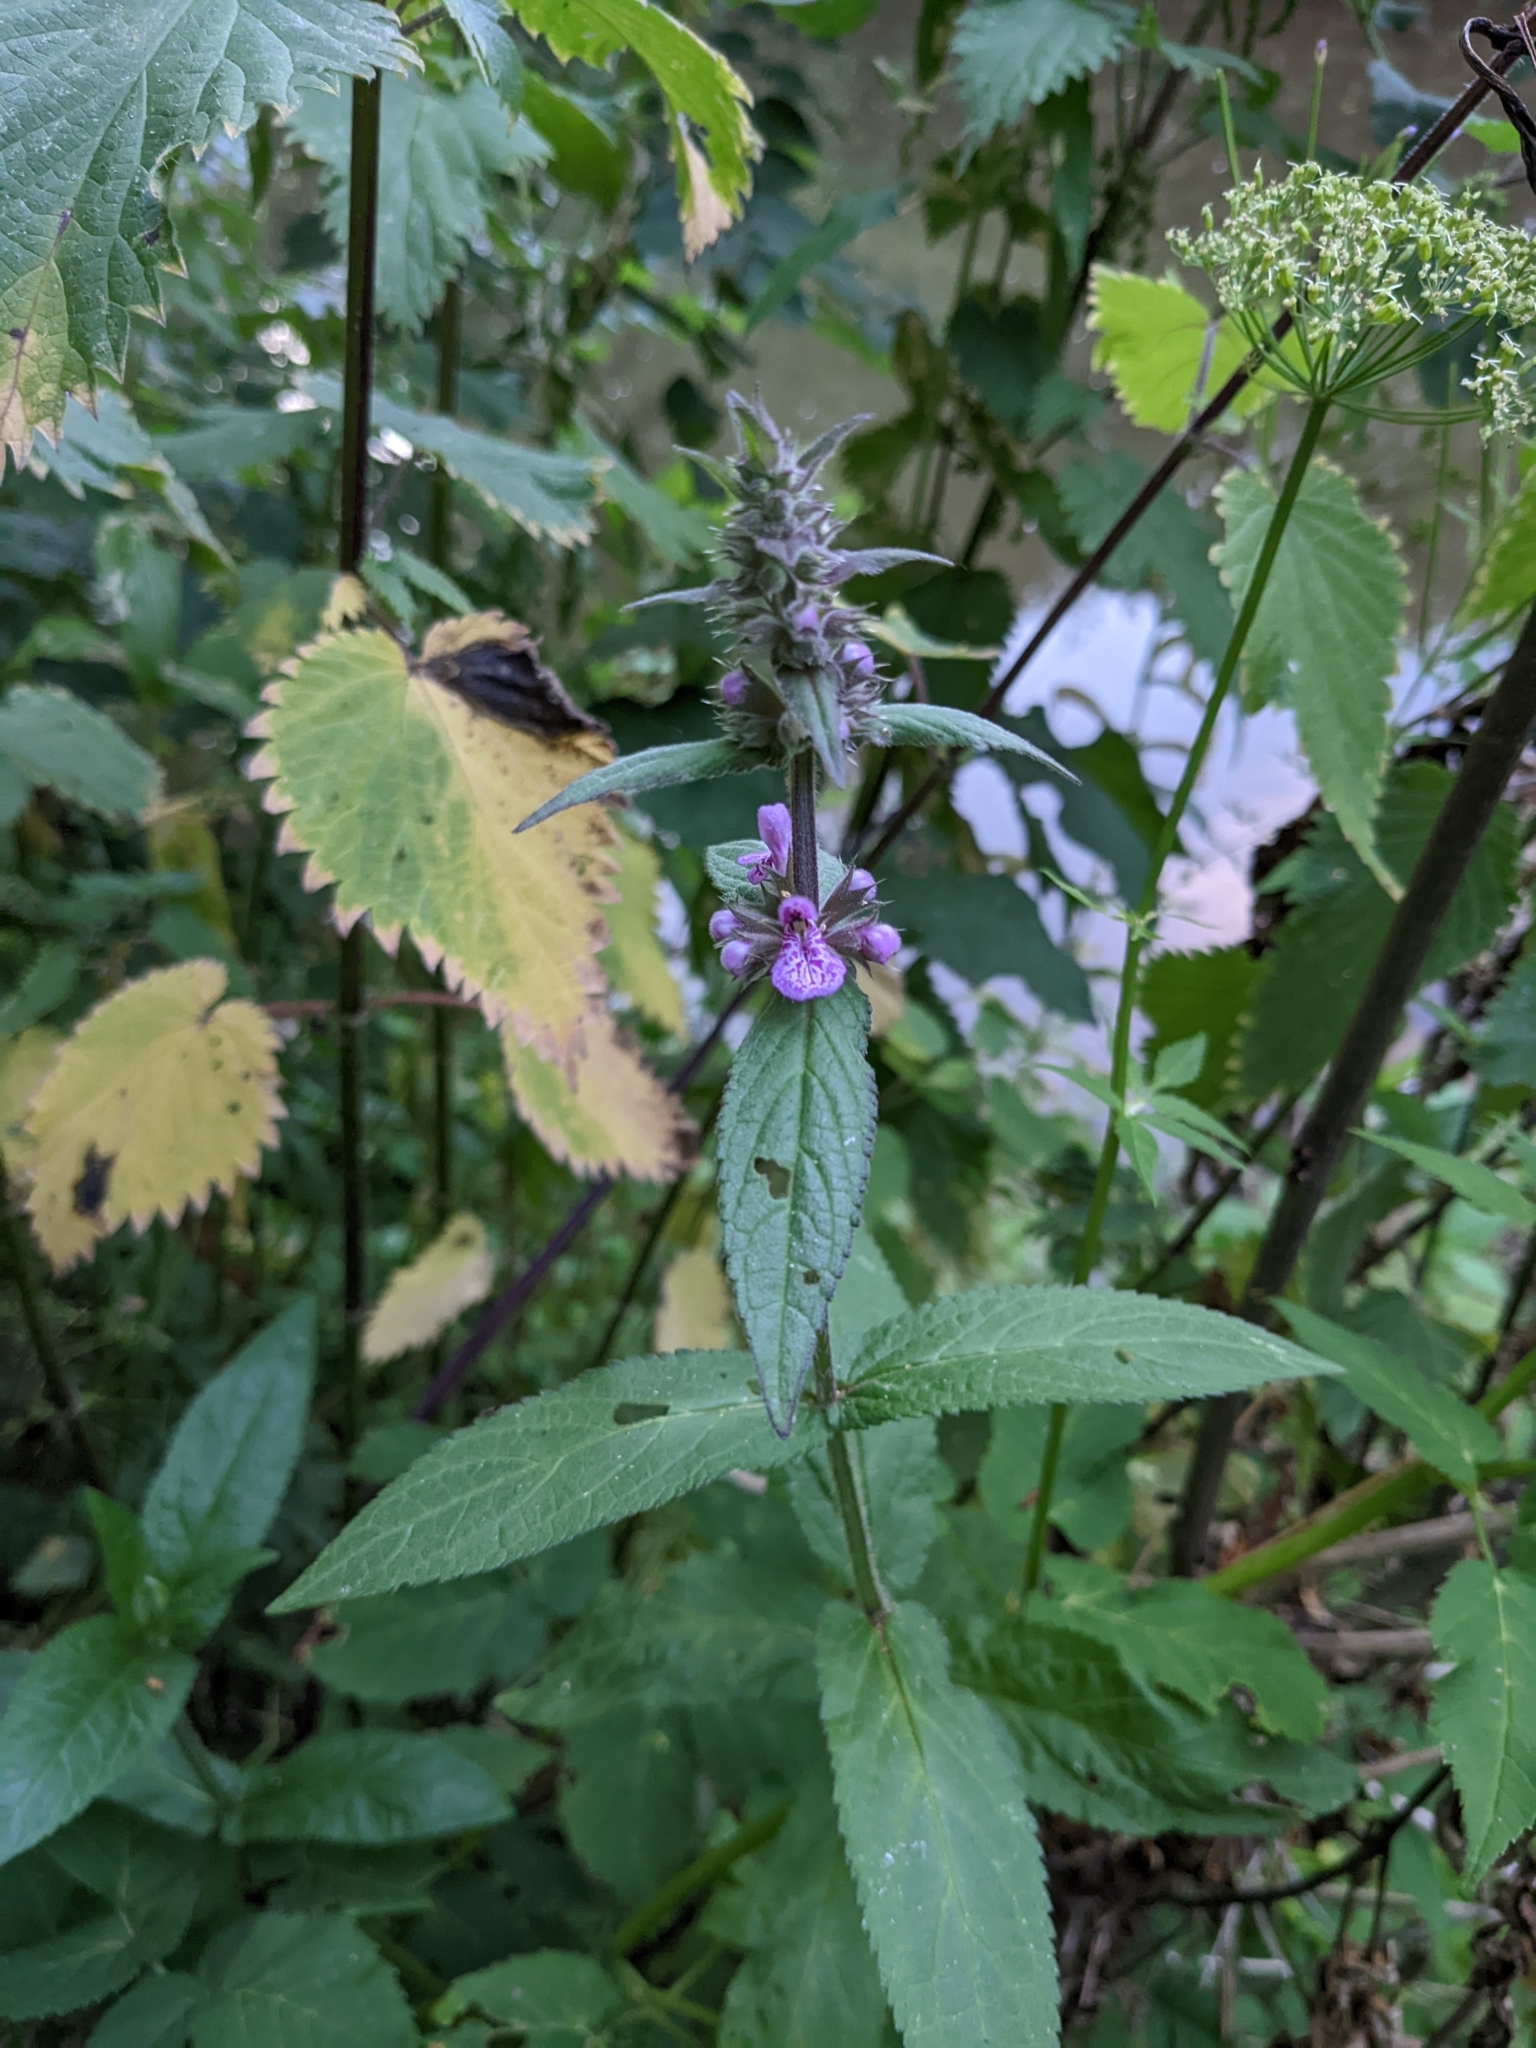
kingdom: Plantae
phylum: Tracheophyta
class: Magnoliopsida
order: Lamiales
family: Lamiaceae
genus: Stachys
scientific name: Stachys palustris
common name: Marsh woundwort
